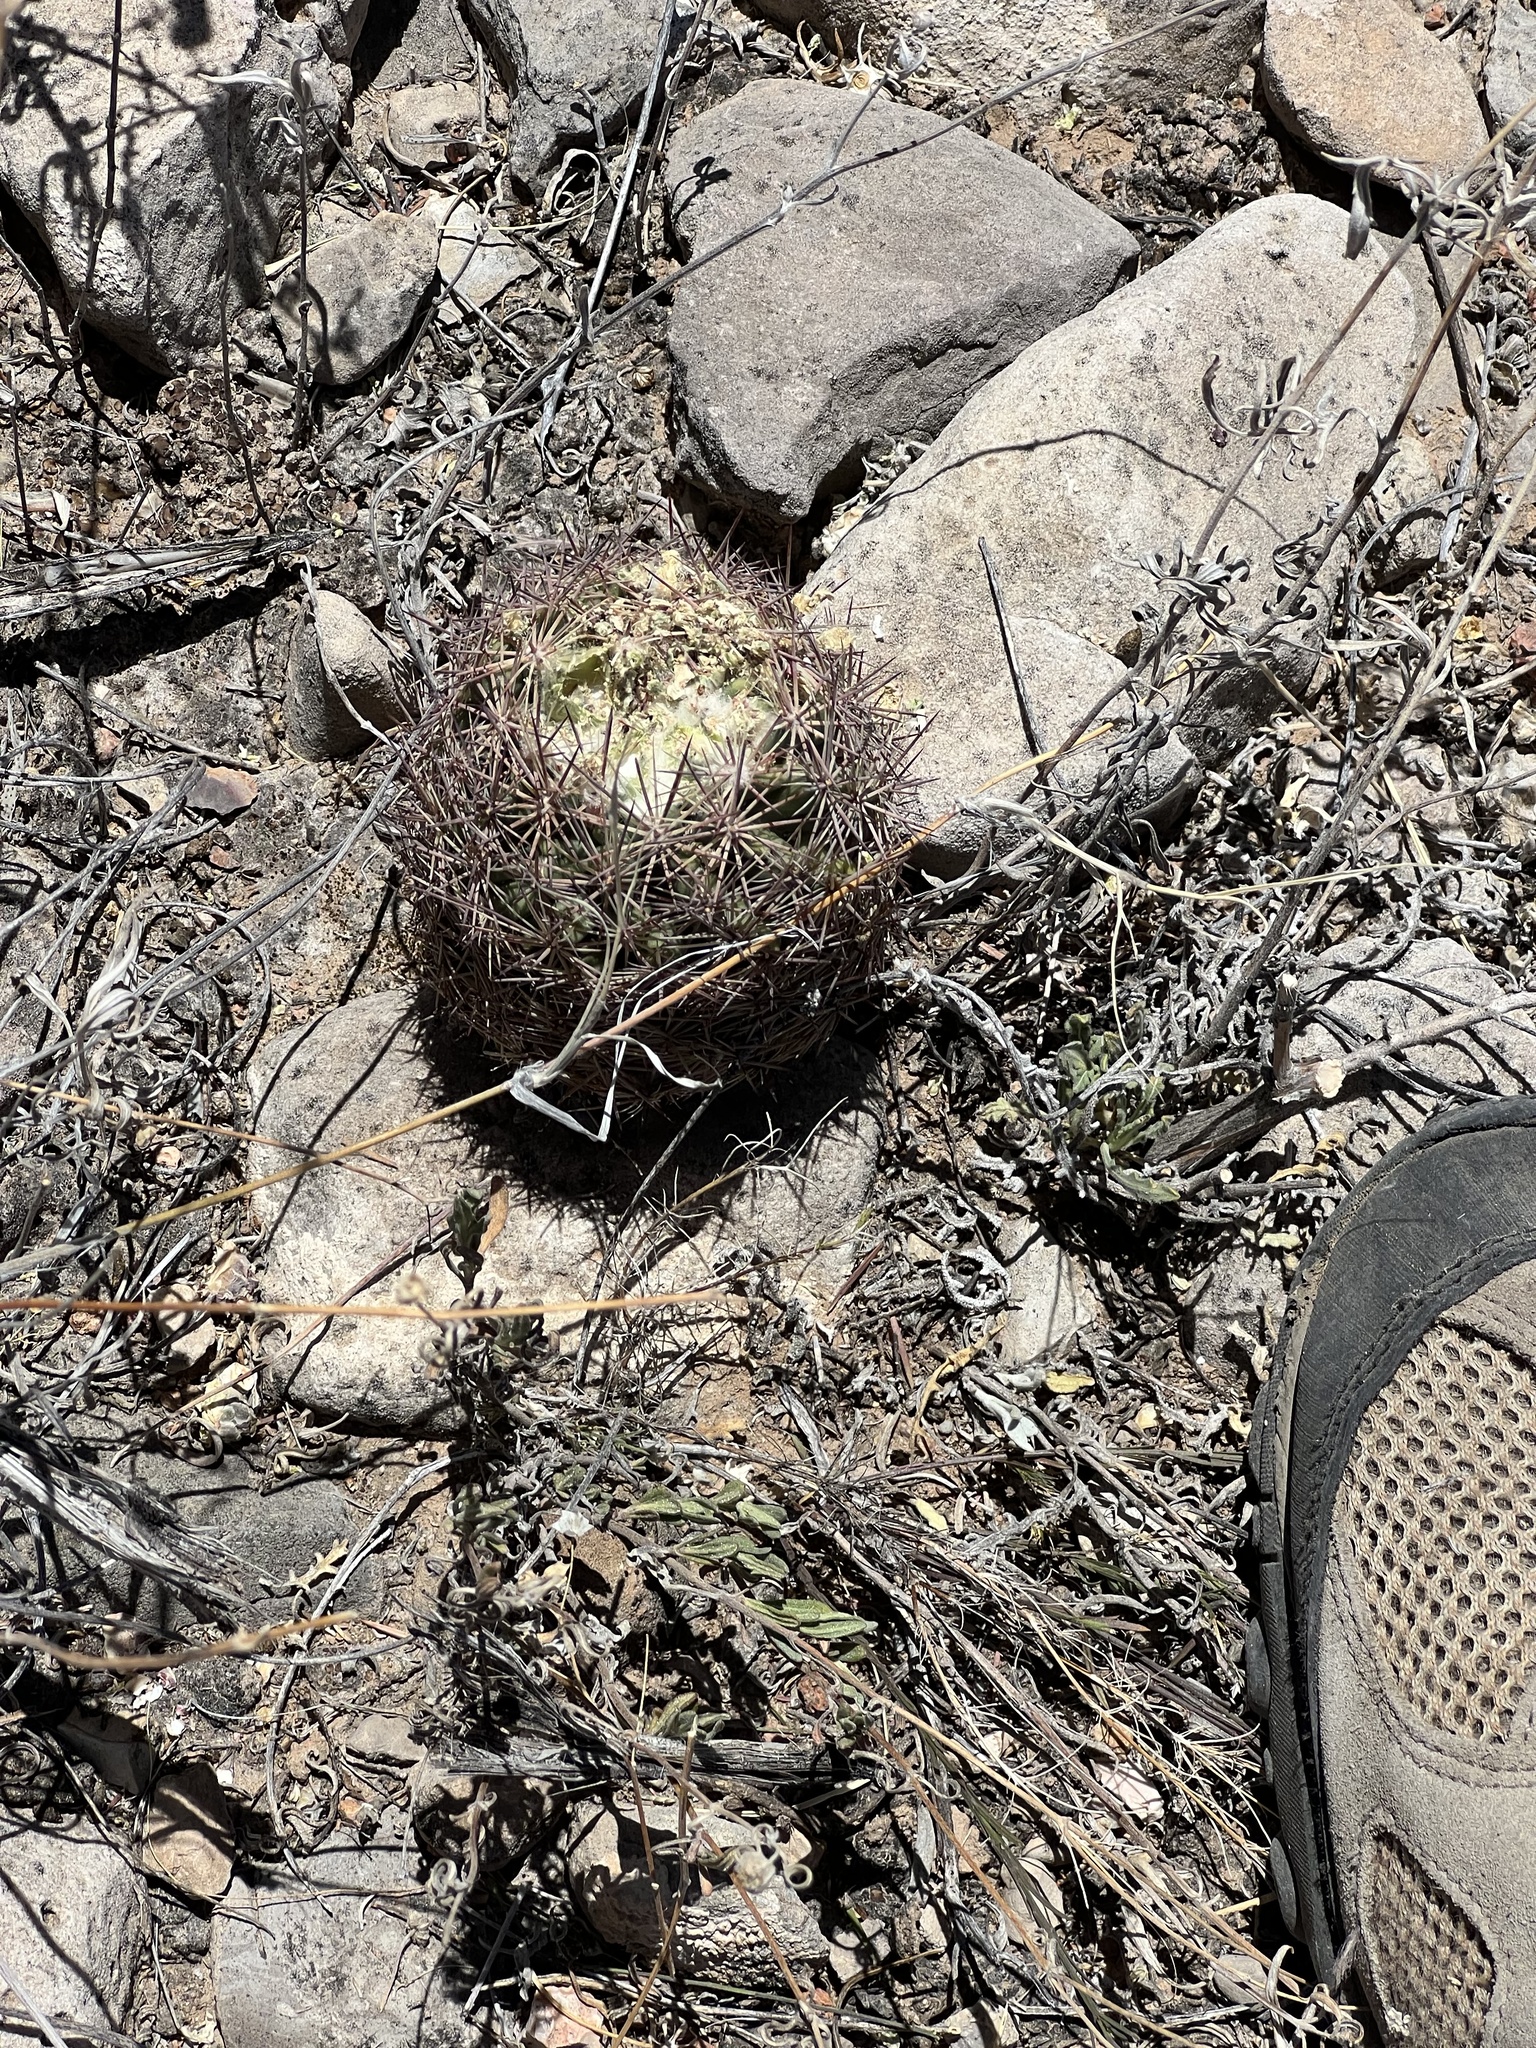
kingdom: Plantae
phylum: Tracheophyta
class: Magnoliopsida
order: Caryophyllales
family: Cactaceae
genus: Sclerocactus
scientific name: Sclerocactus intertextus
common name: White fish-hook cactus
